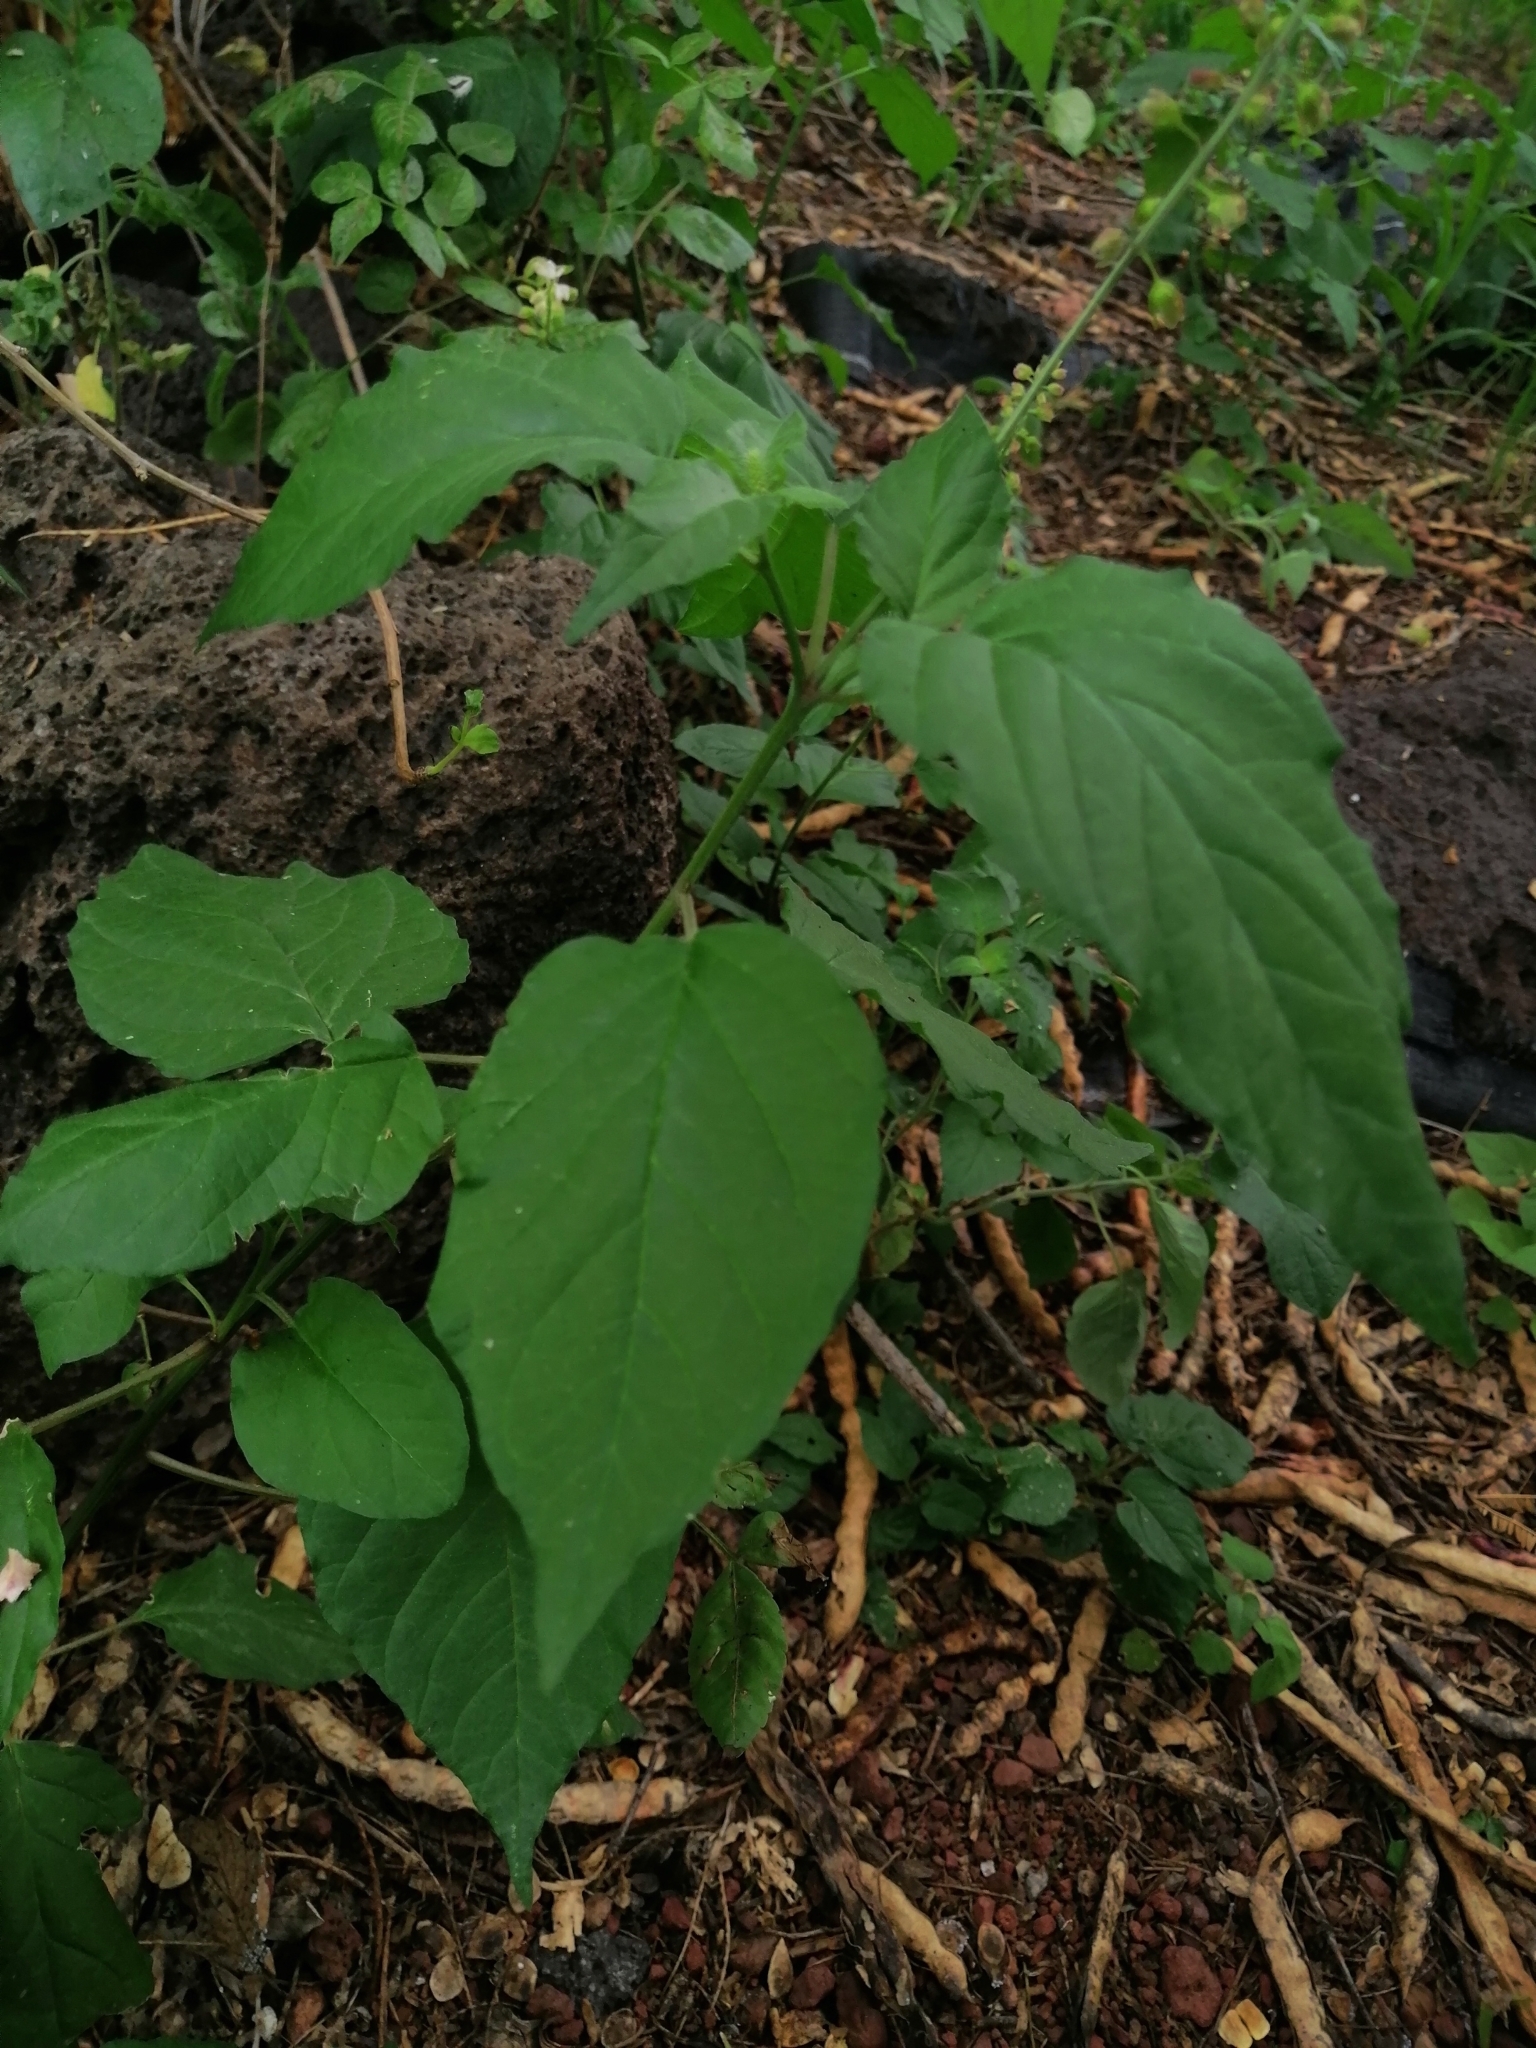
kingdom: Plantae
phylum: Tracheophyta
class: Magnoliopsida
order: Caryophyllales
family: Phytolaccaceae
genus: Rivina
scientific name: Rivina humilis
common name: Rougeplant
